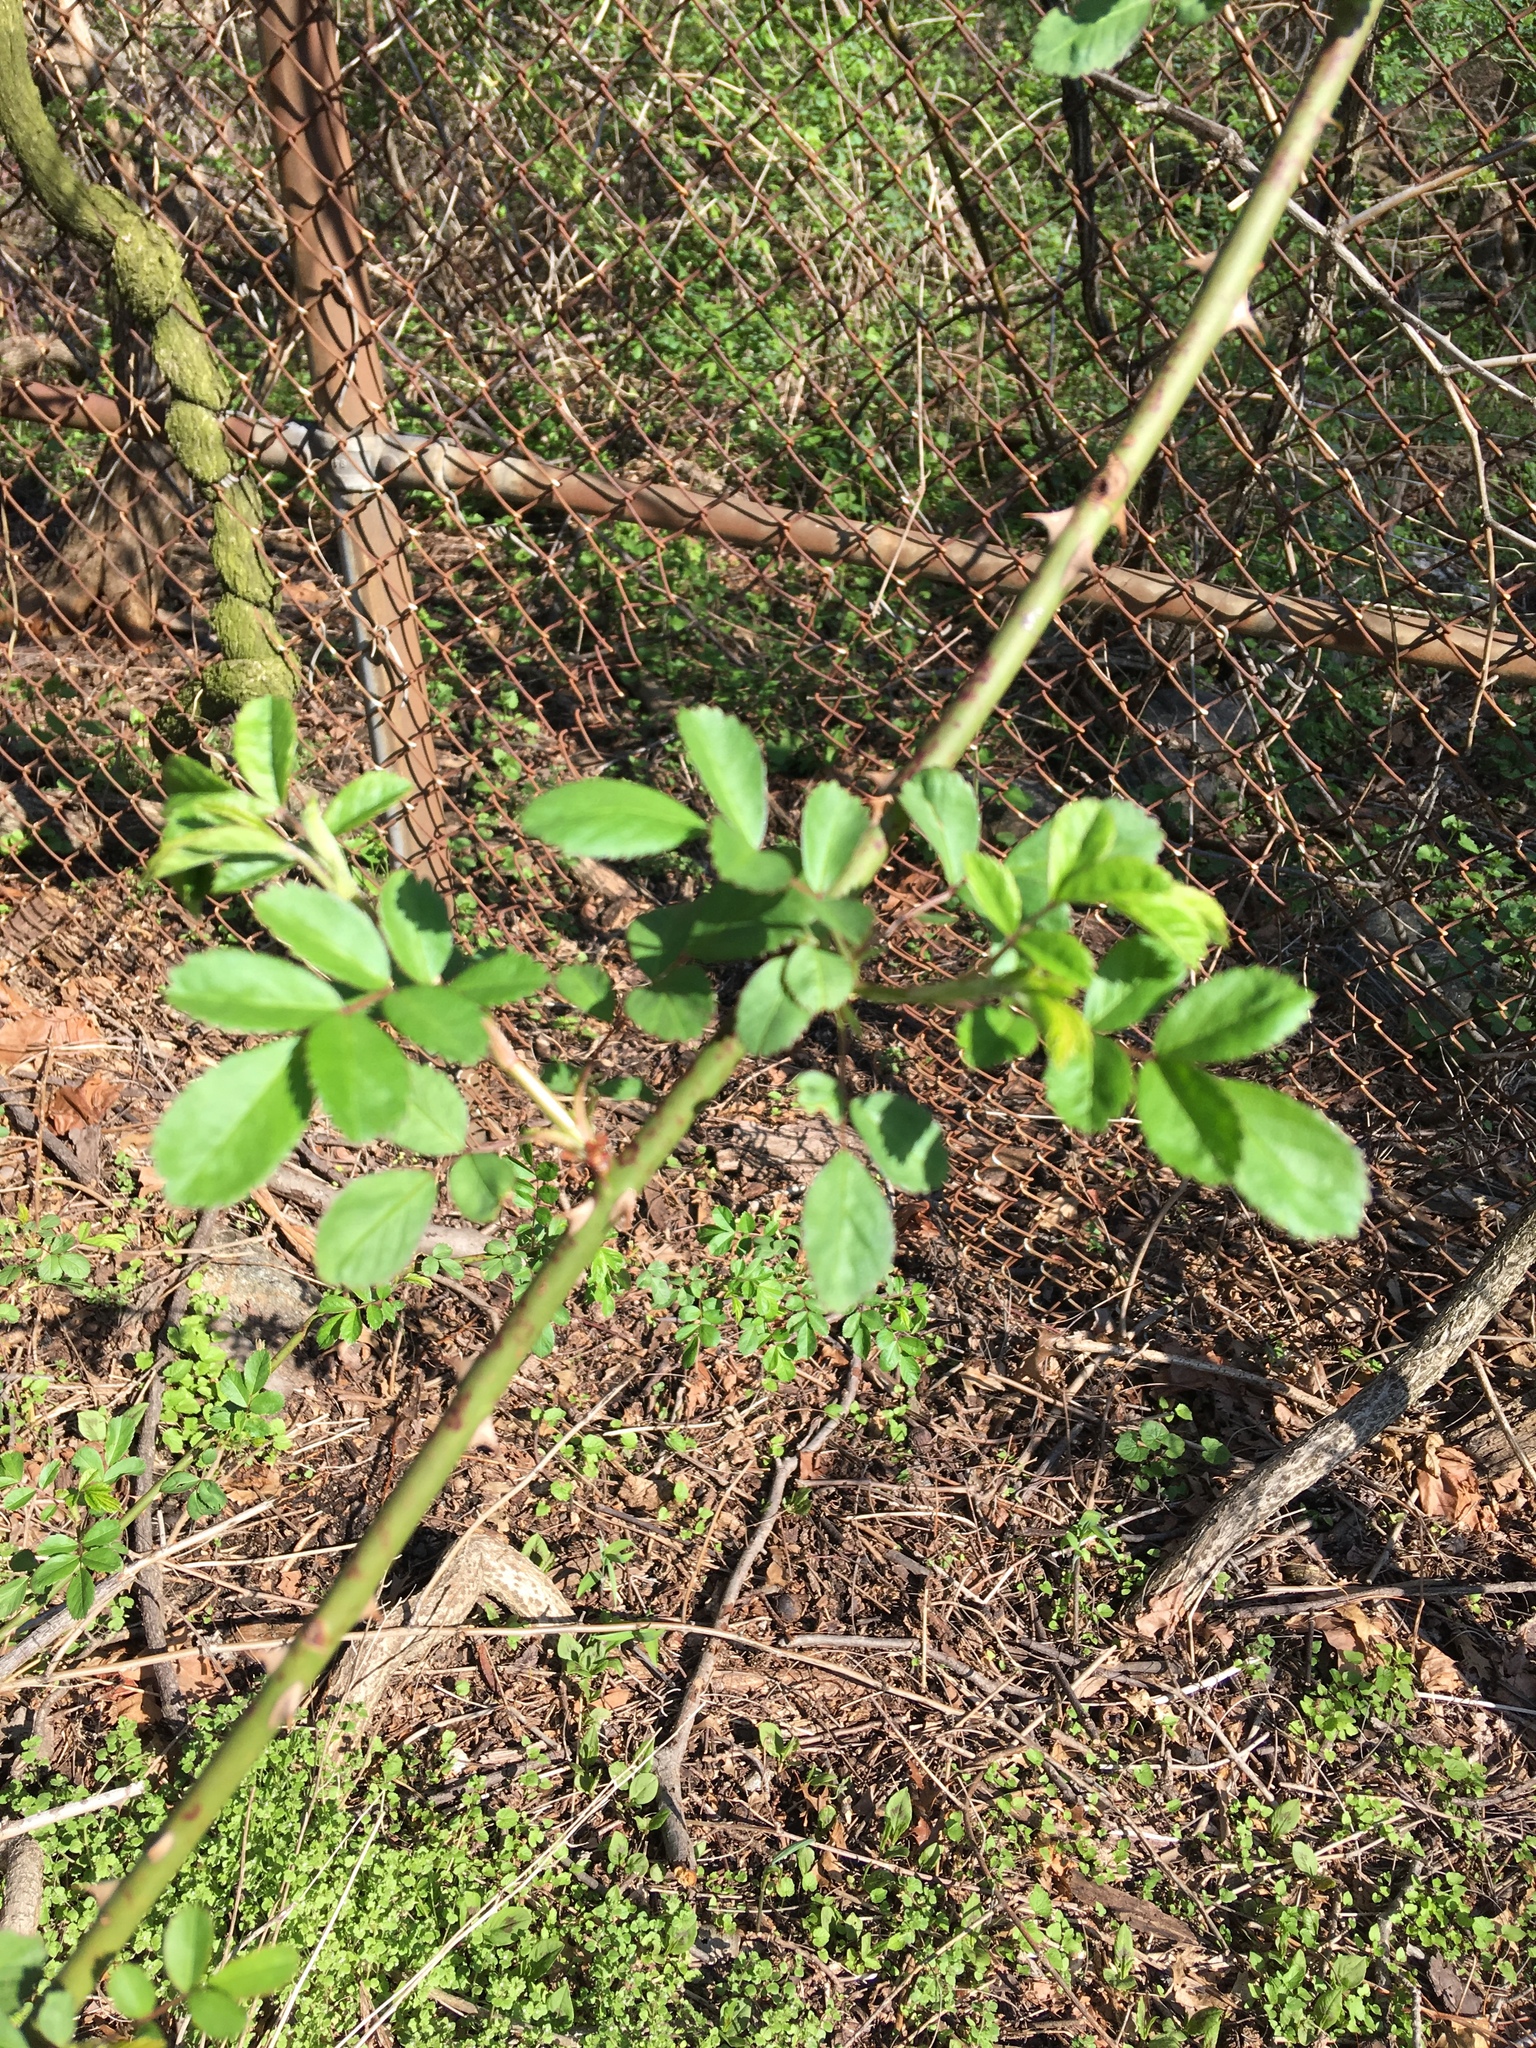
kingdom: Plantae
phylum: Tracheophyta
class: Magnoliopsida
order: Rosales
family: Rosaceae
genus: Rosa
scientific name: Rosa multiflora
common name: Multiflora rose
